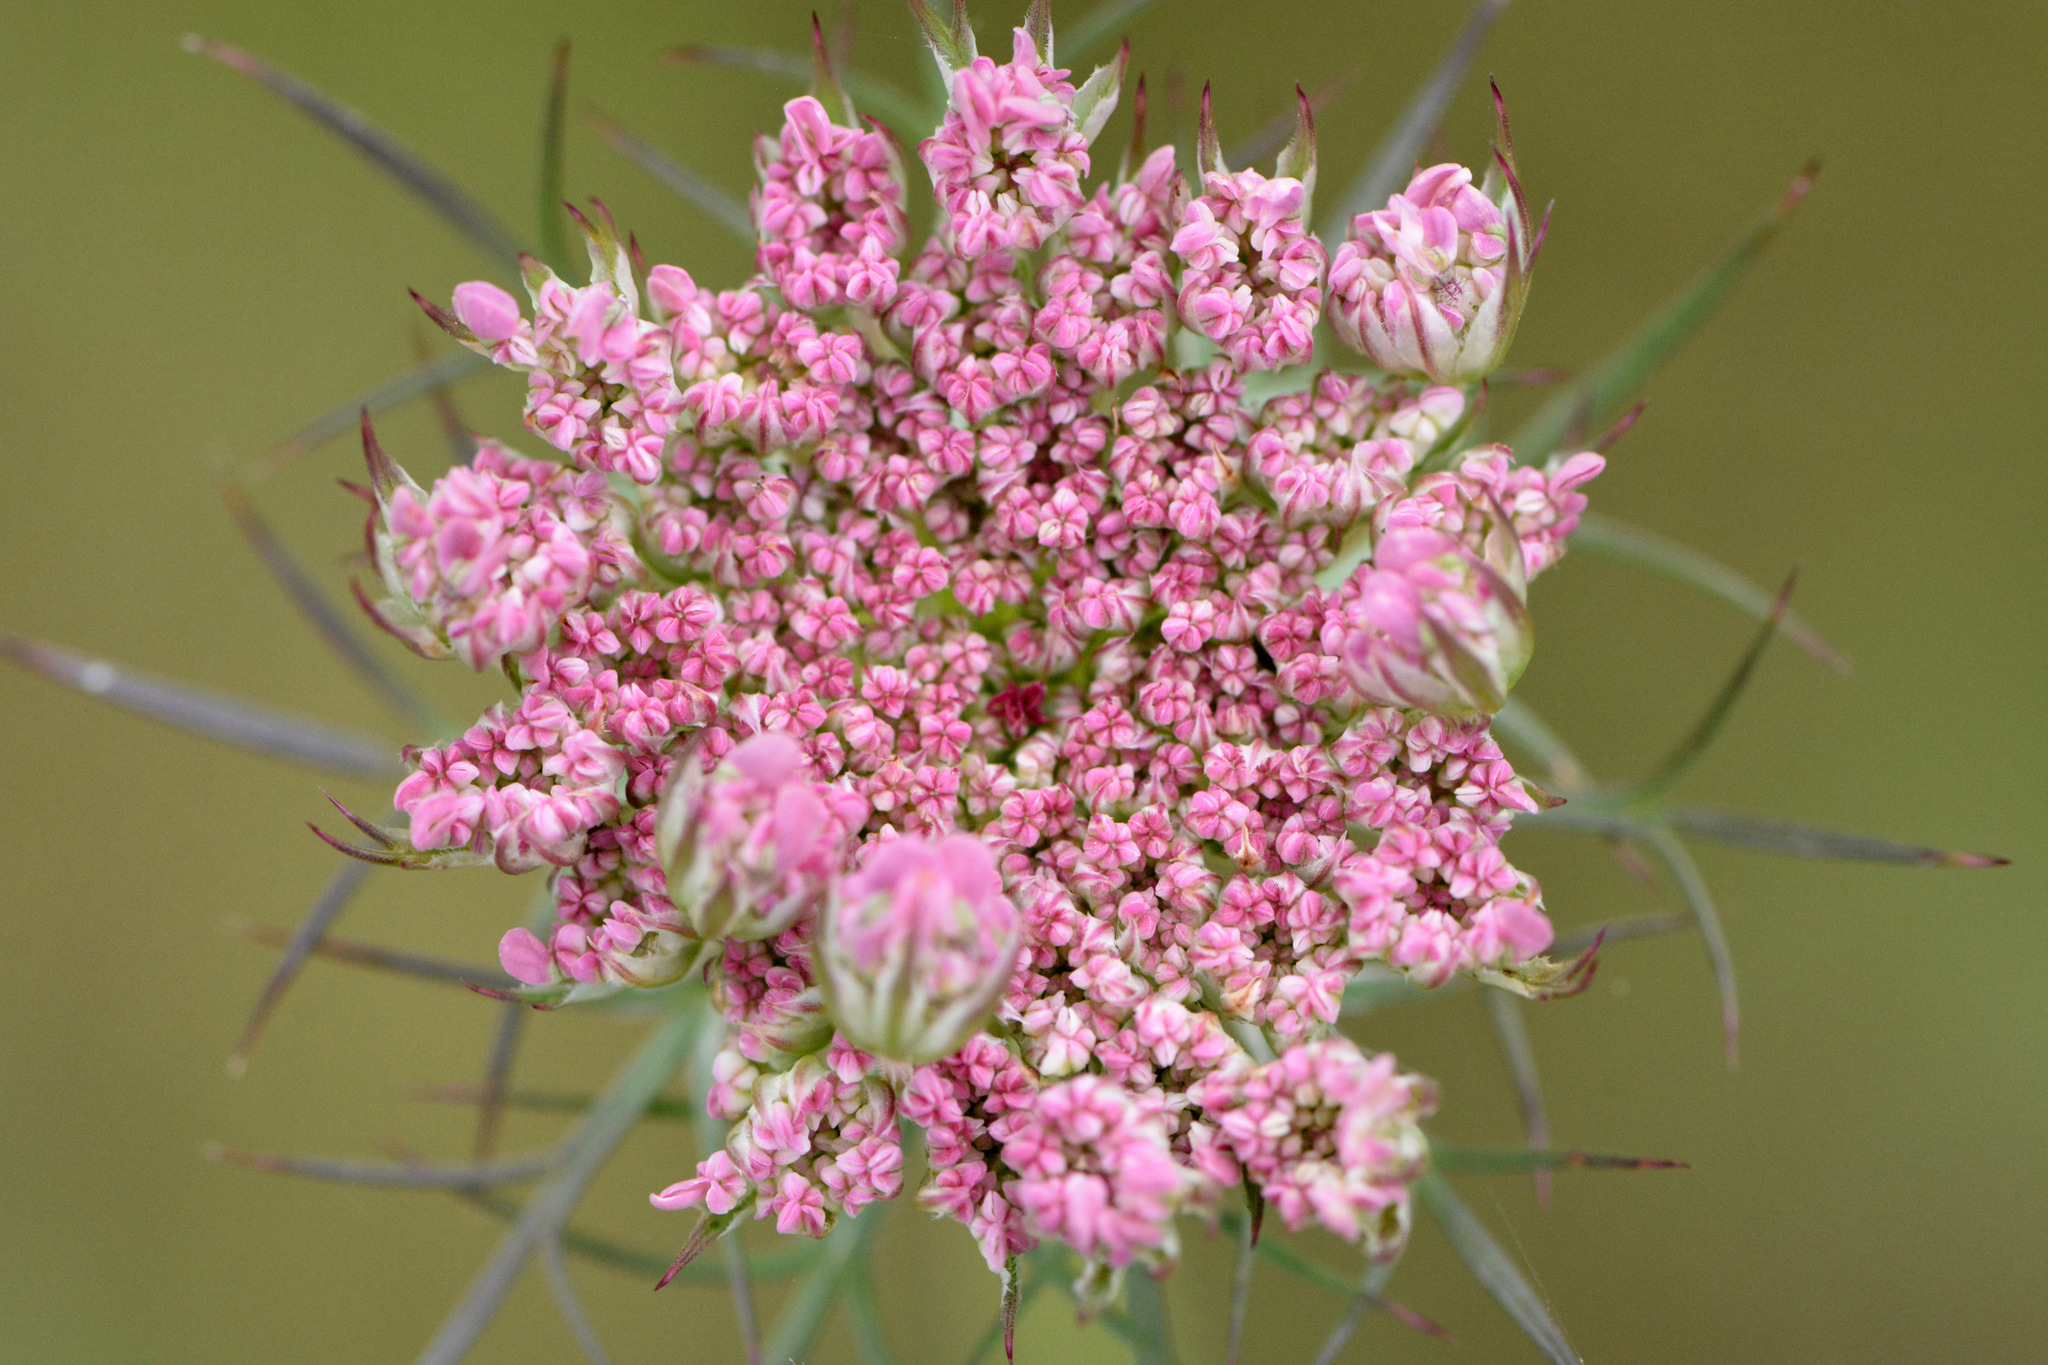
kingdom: Plantae
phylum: Tracheophyta
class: Magnoliopsida
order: Apiales
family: Apiaceae
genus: Daucus
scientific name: Daucus carota
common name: Wild carrot
